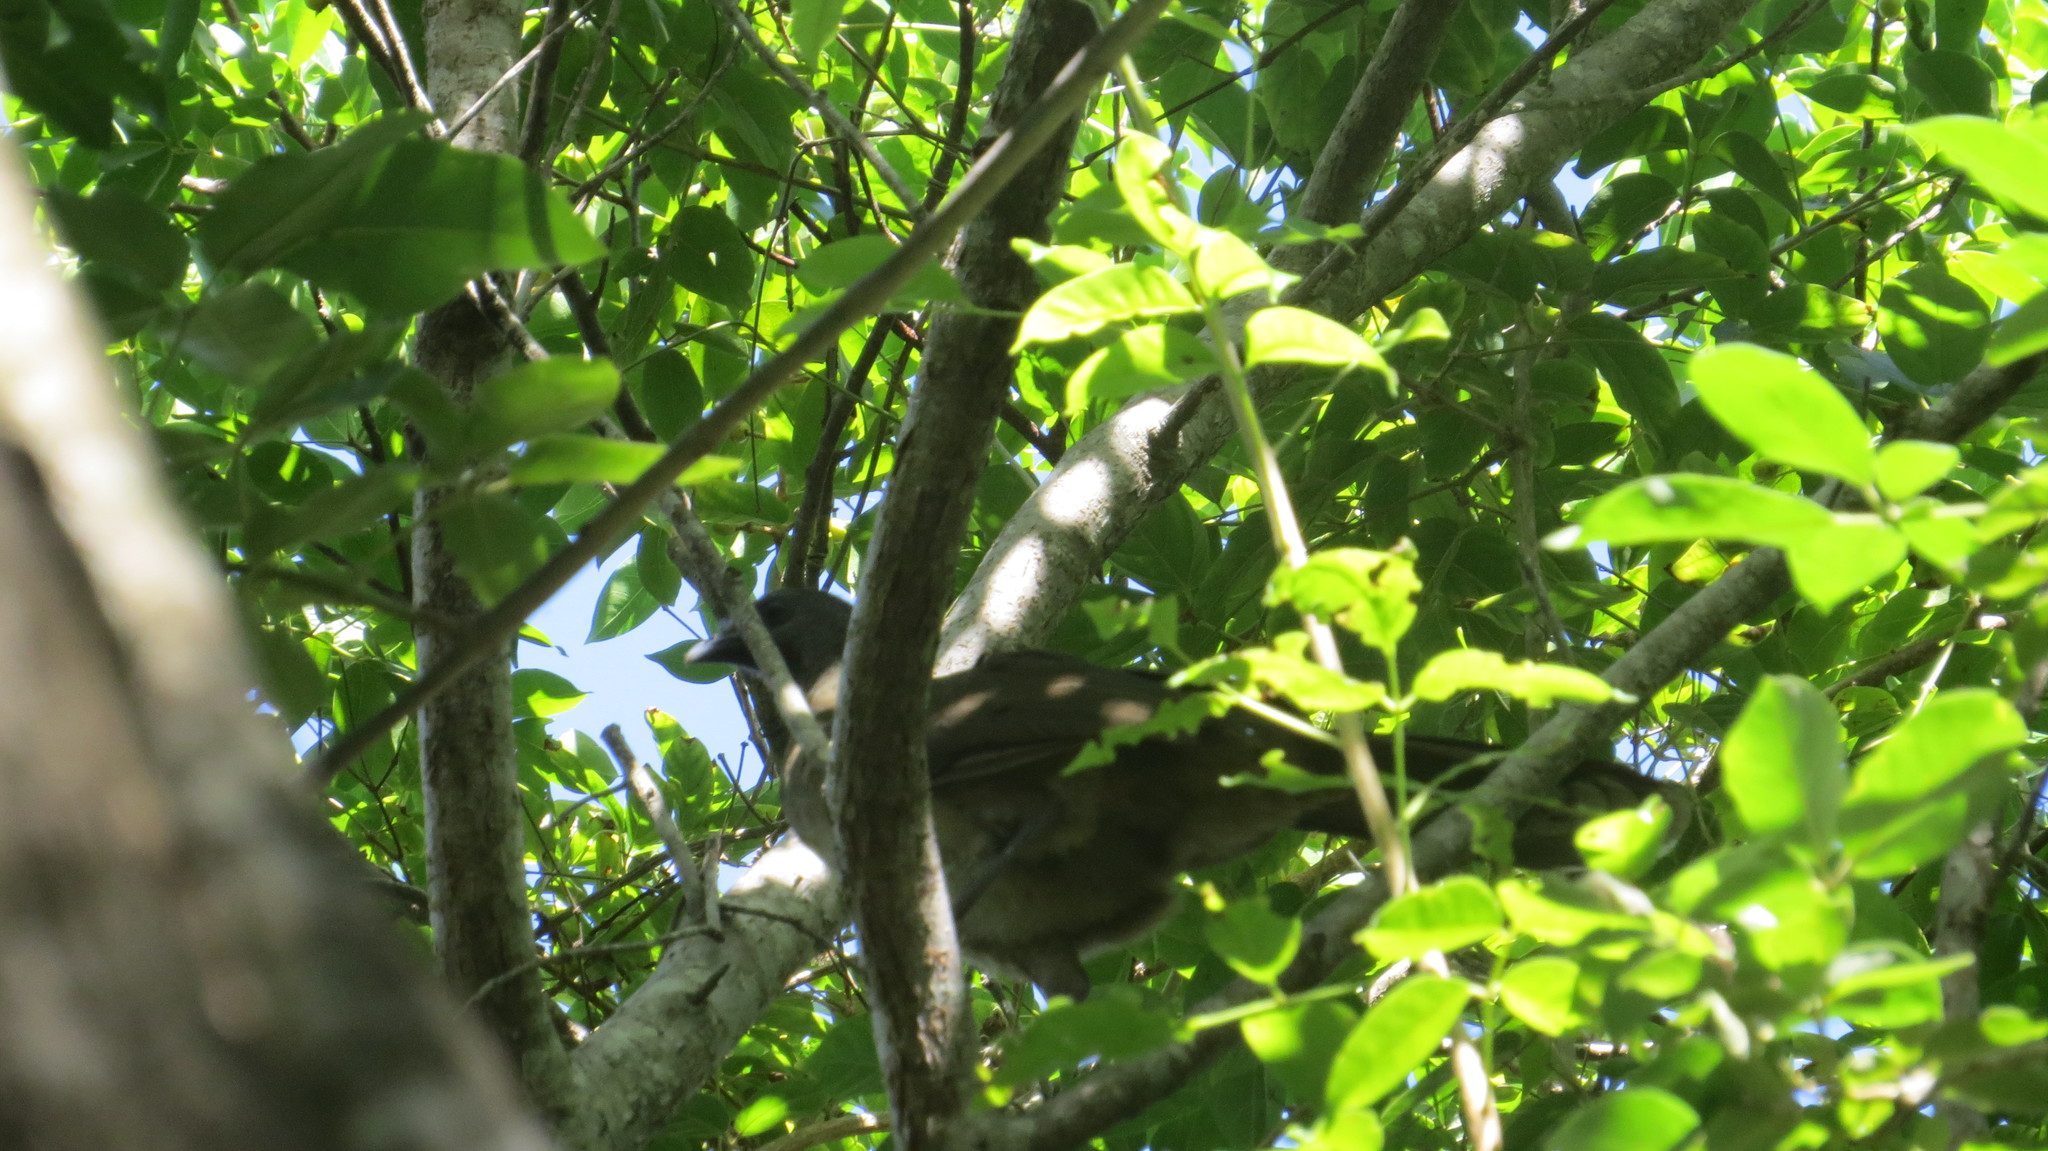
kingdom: Animalia
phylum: Chordata
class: Aves
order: Galliformes
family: Cracidae
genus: Ortalis
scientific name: Ortalis vetula
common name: Plain chachalaca
